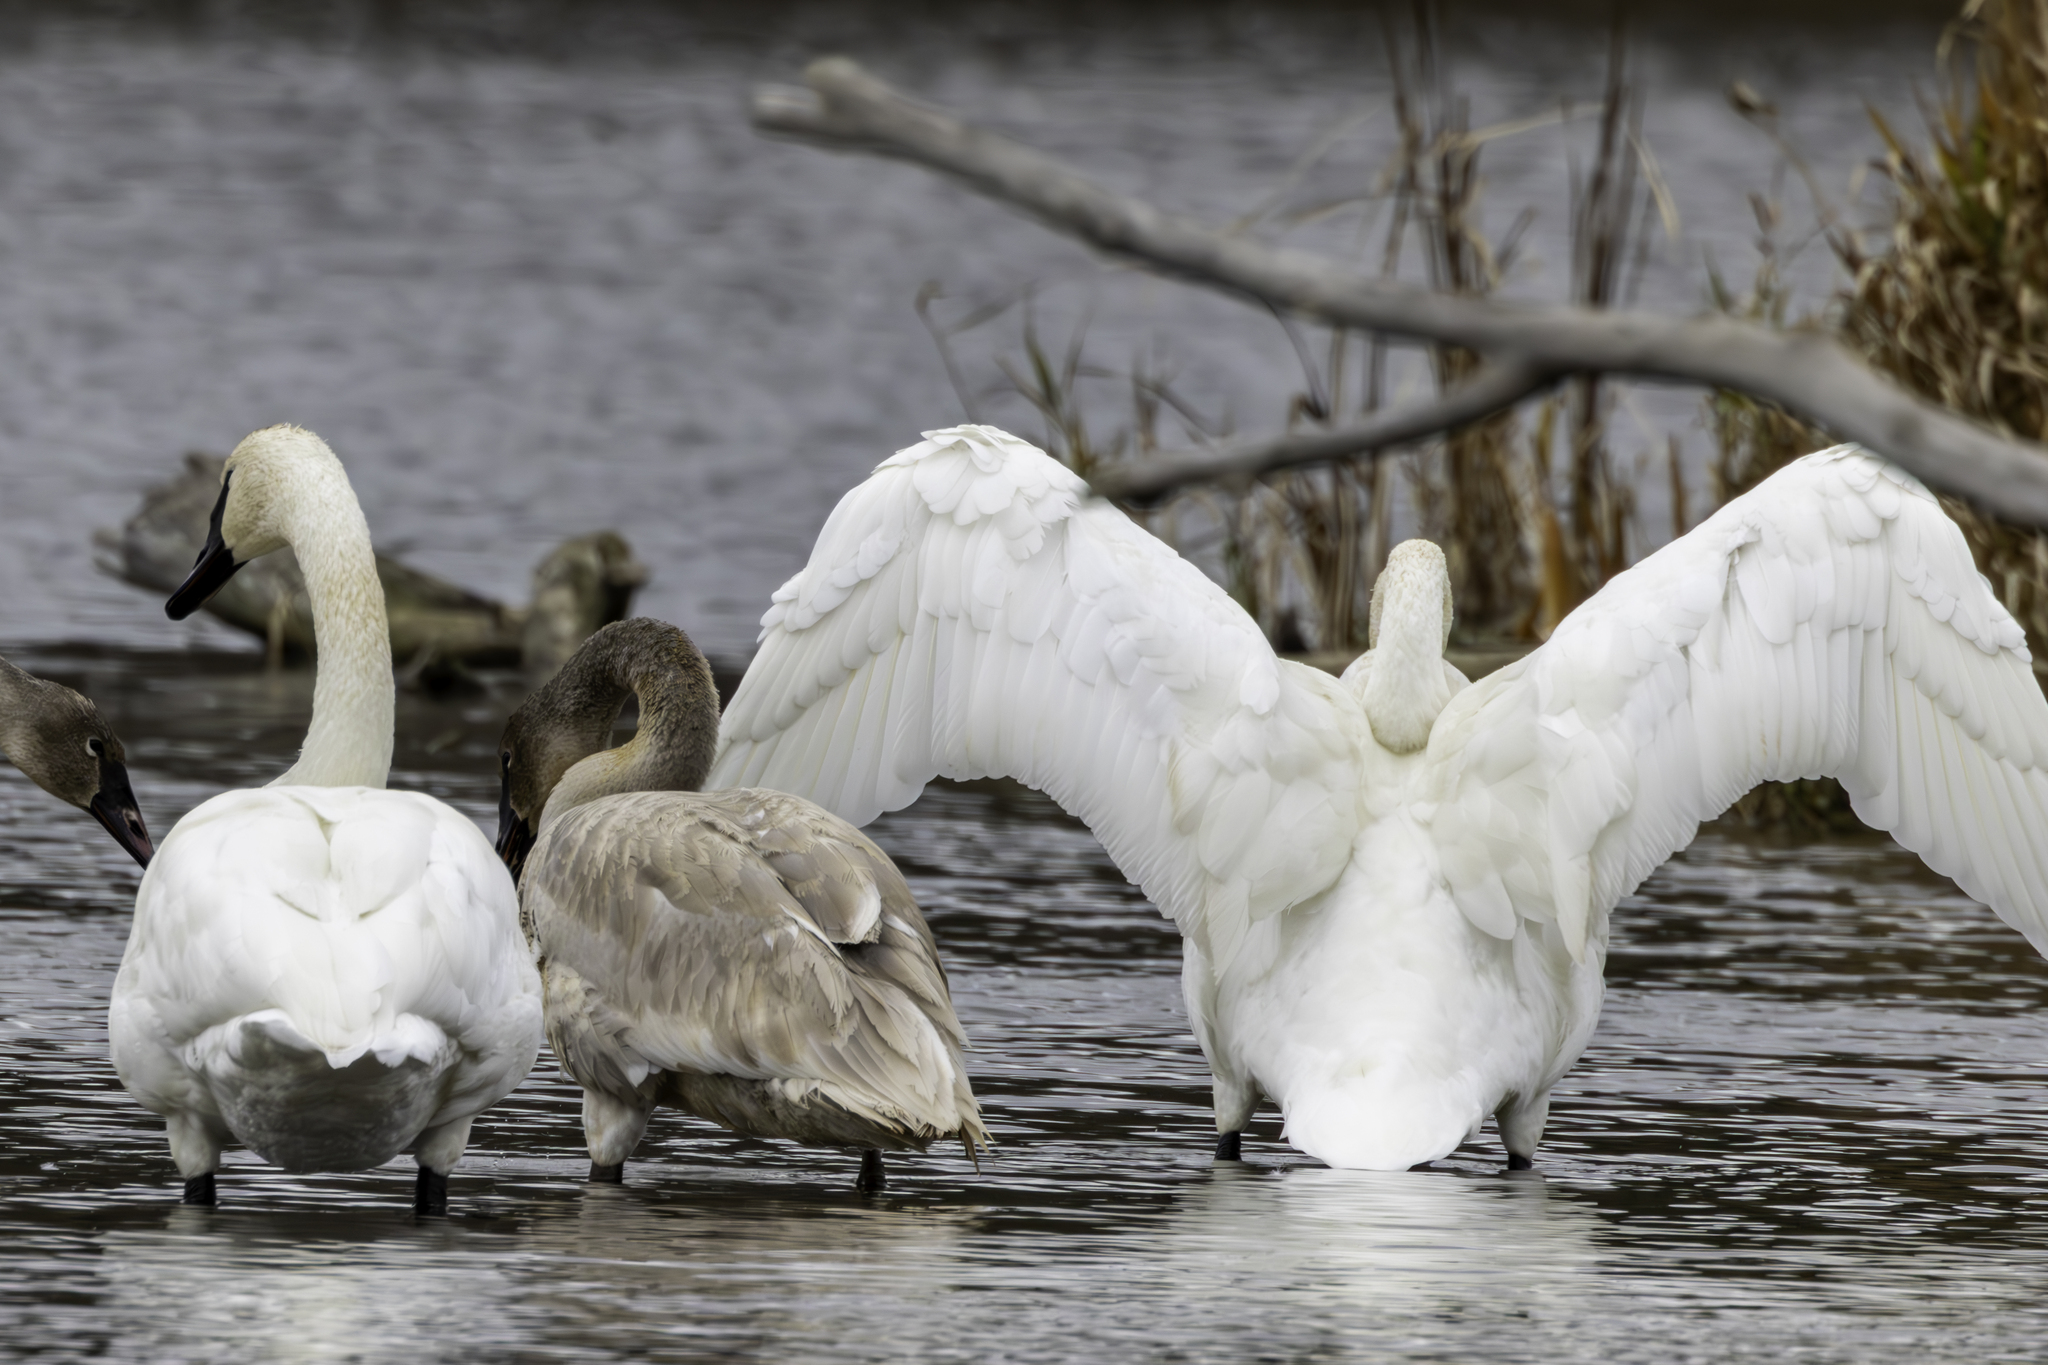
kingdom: Animalia
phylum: Chordata
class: Aves
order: Anseriformes
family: Anatidae
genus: Cygnus
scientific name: Cygnus buccinator
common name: Trumpeter swan
